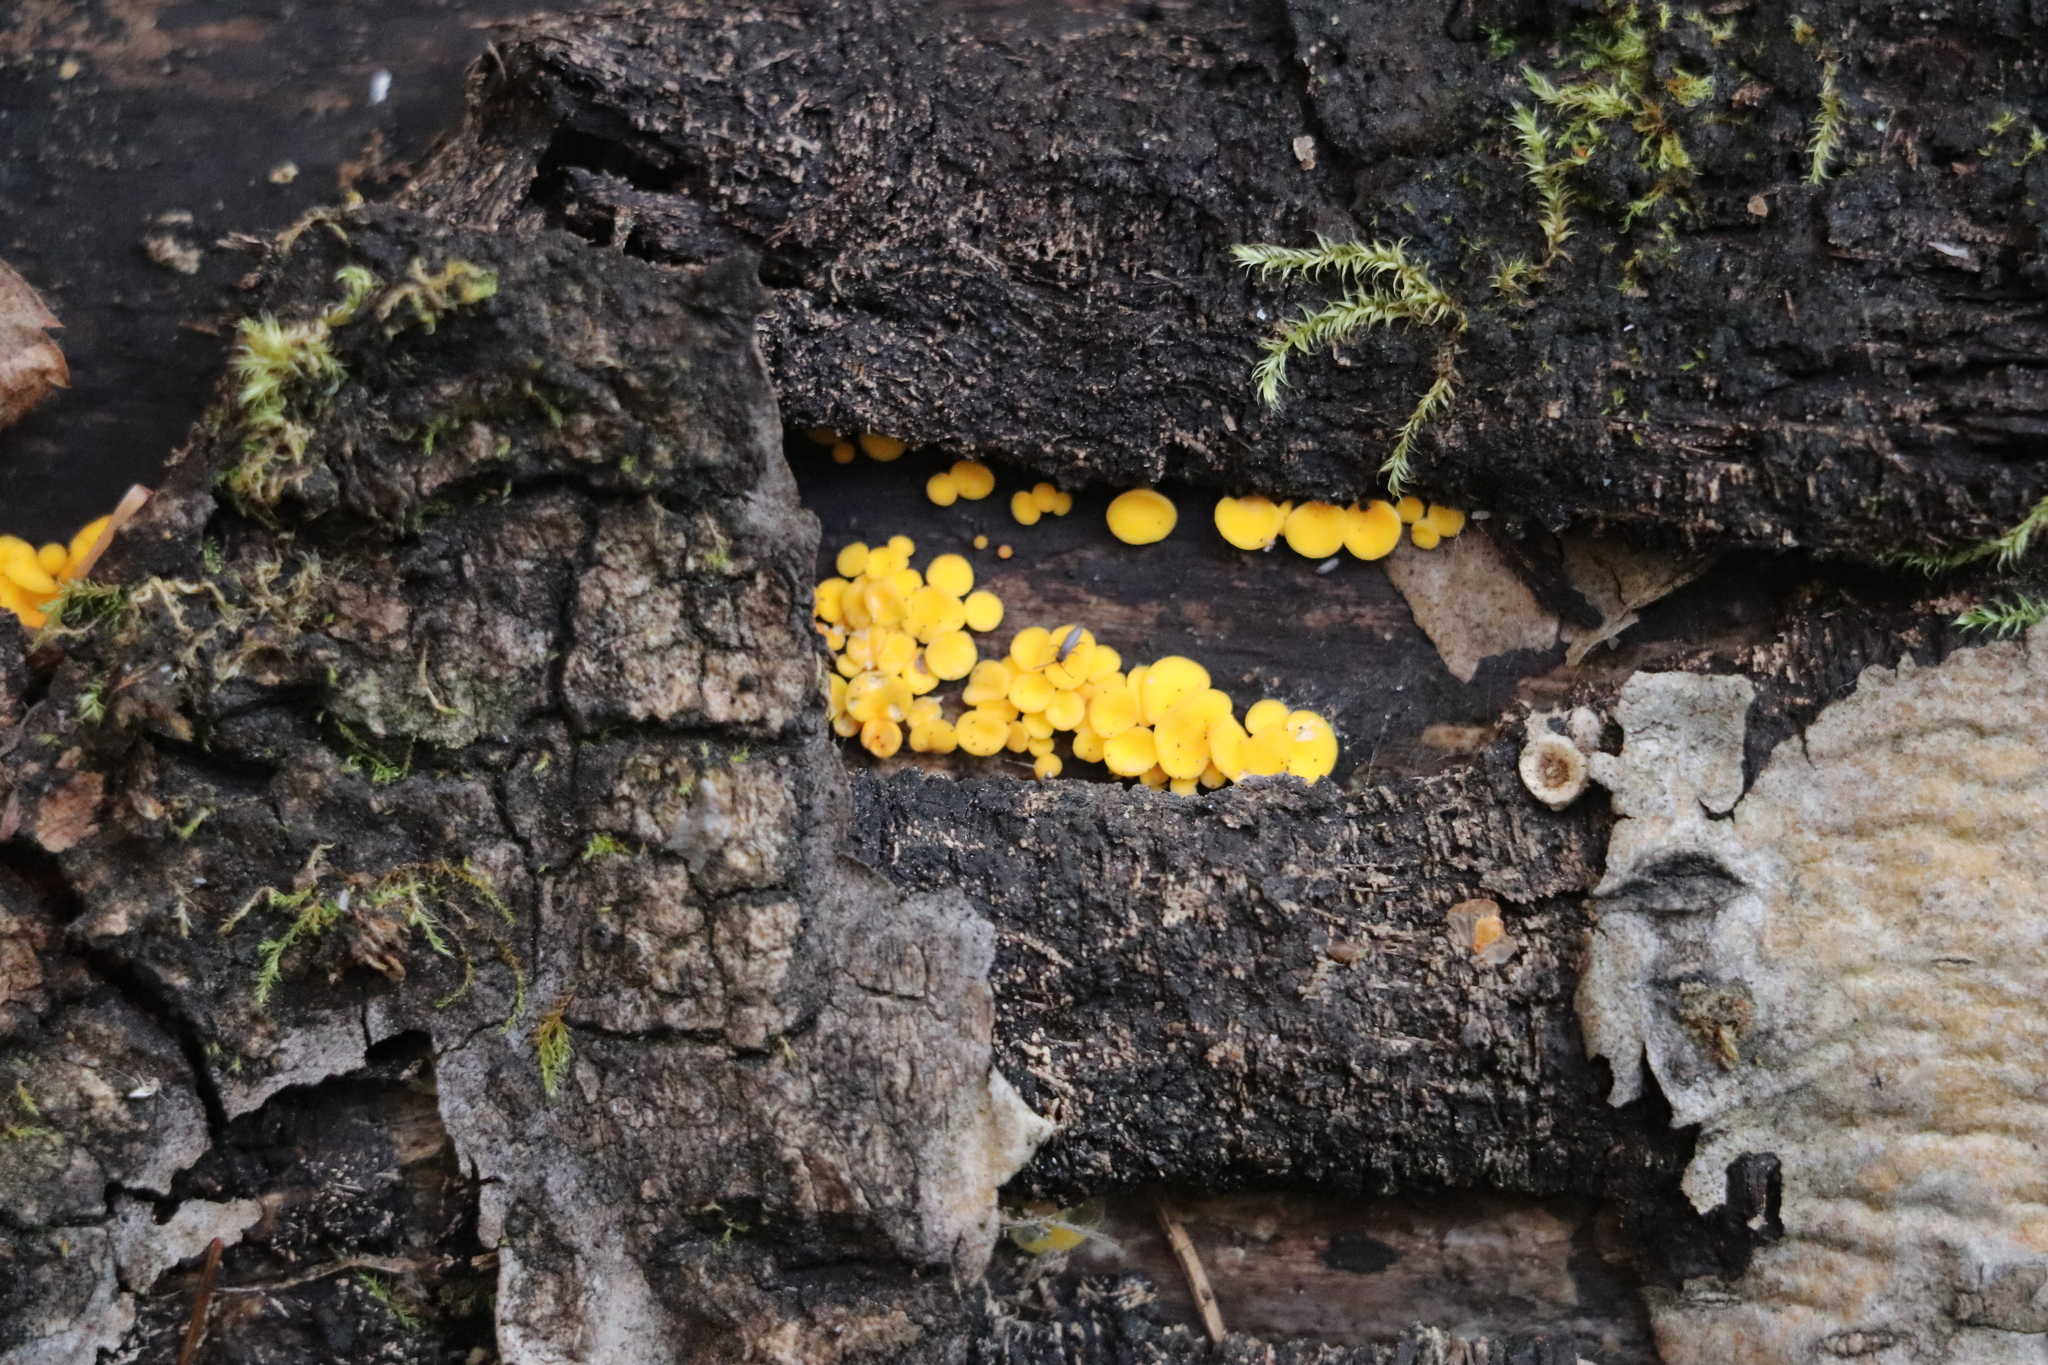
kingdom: Fungi
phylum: Ascomycota
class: Leotiomycetes
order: Helotiales
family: Pezizellaceae
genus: Calycina
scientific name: Calycina citrina
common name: Yellow fairy cups
